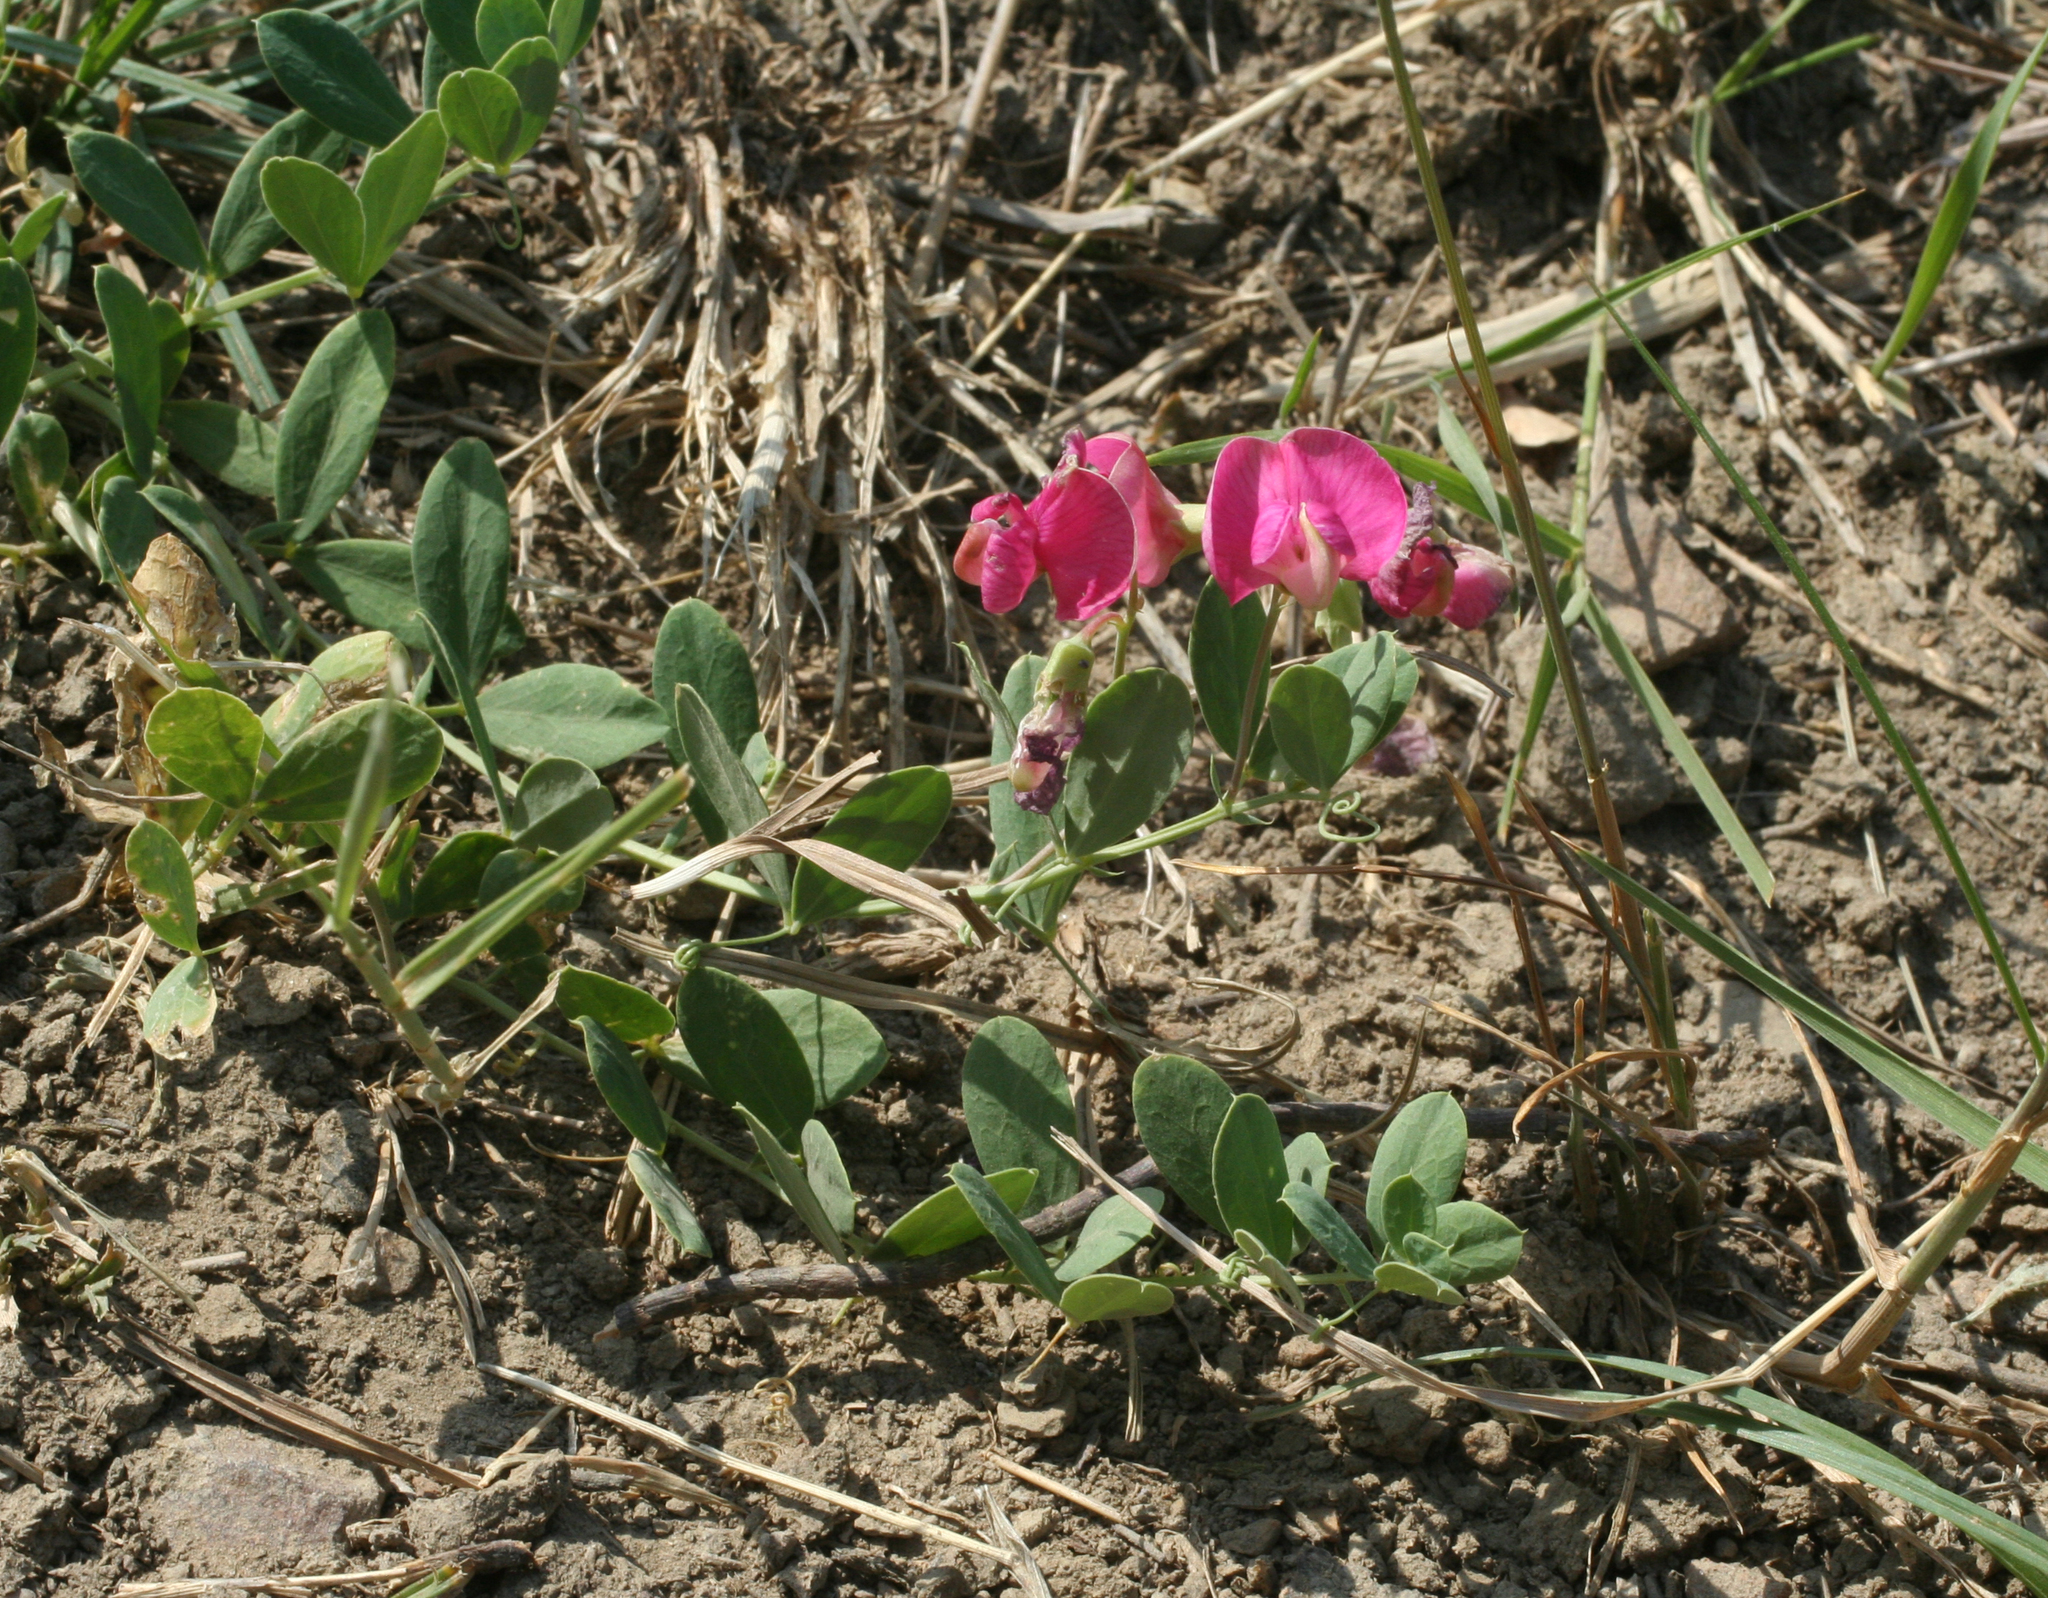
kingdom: Plantae
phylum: Tracheophyta
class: Magnoliopsida
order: Fabales
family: Fabaceae
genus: Lathyrus
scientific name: Lathyrus tuberosus
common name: Tuberous pea
